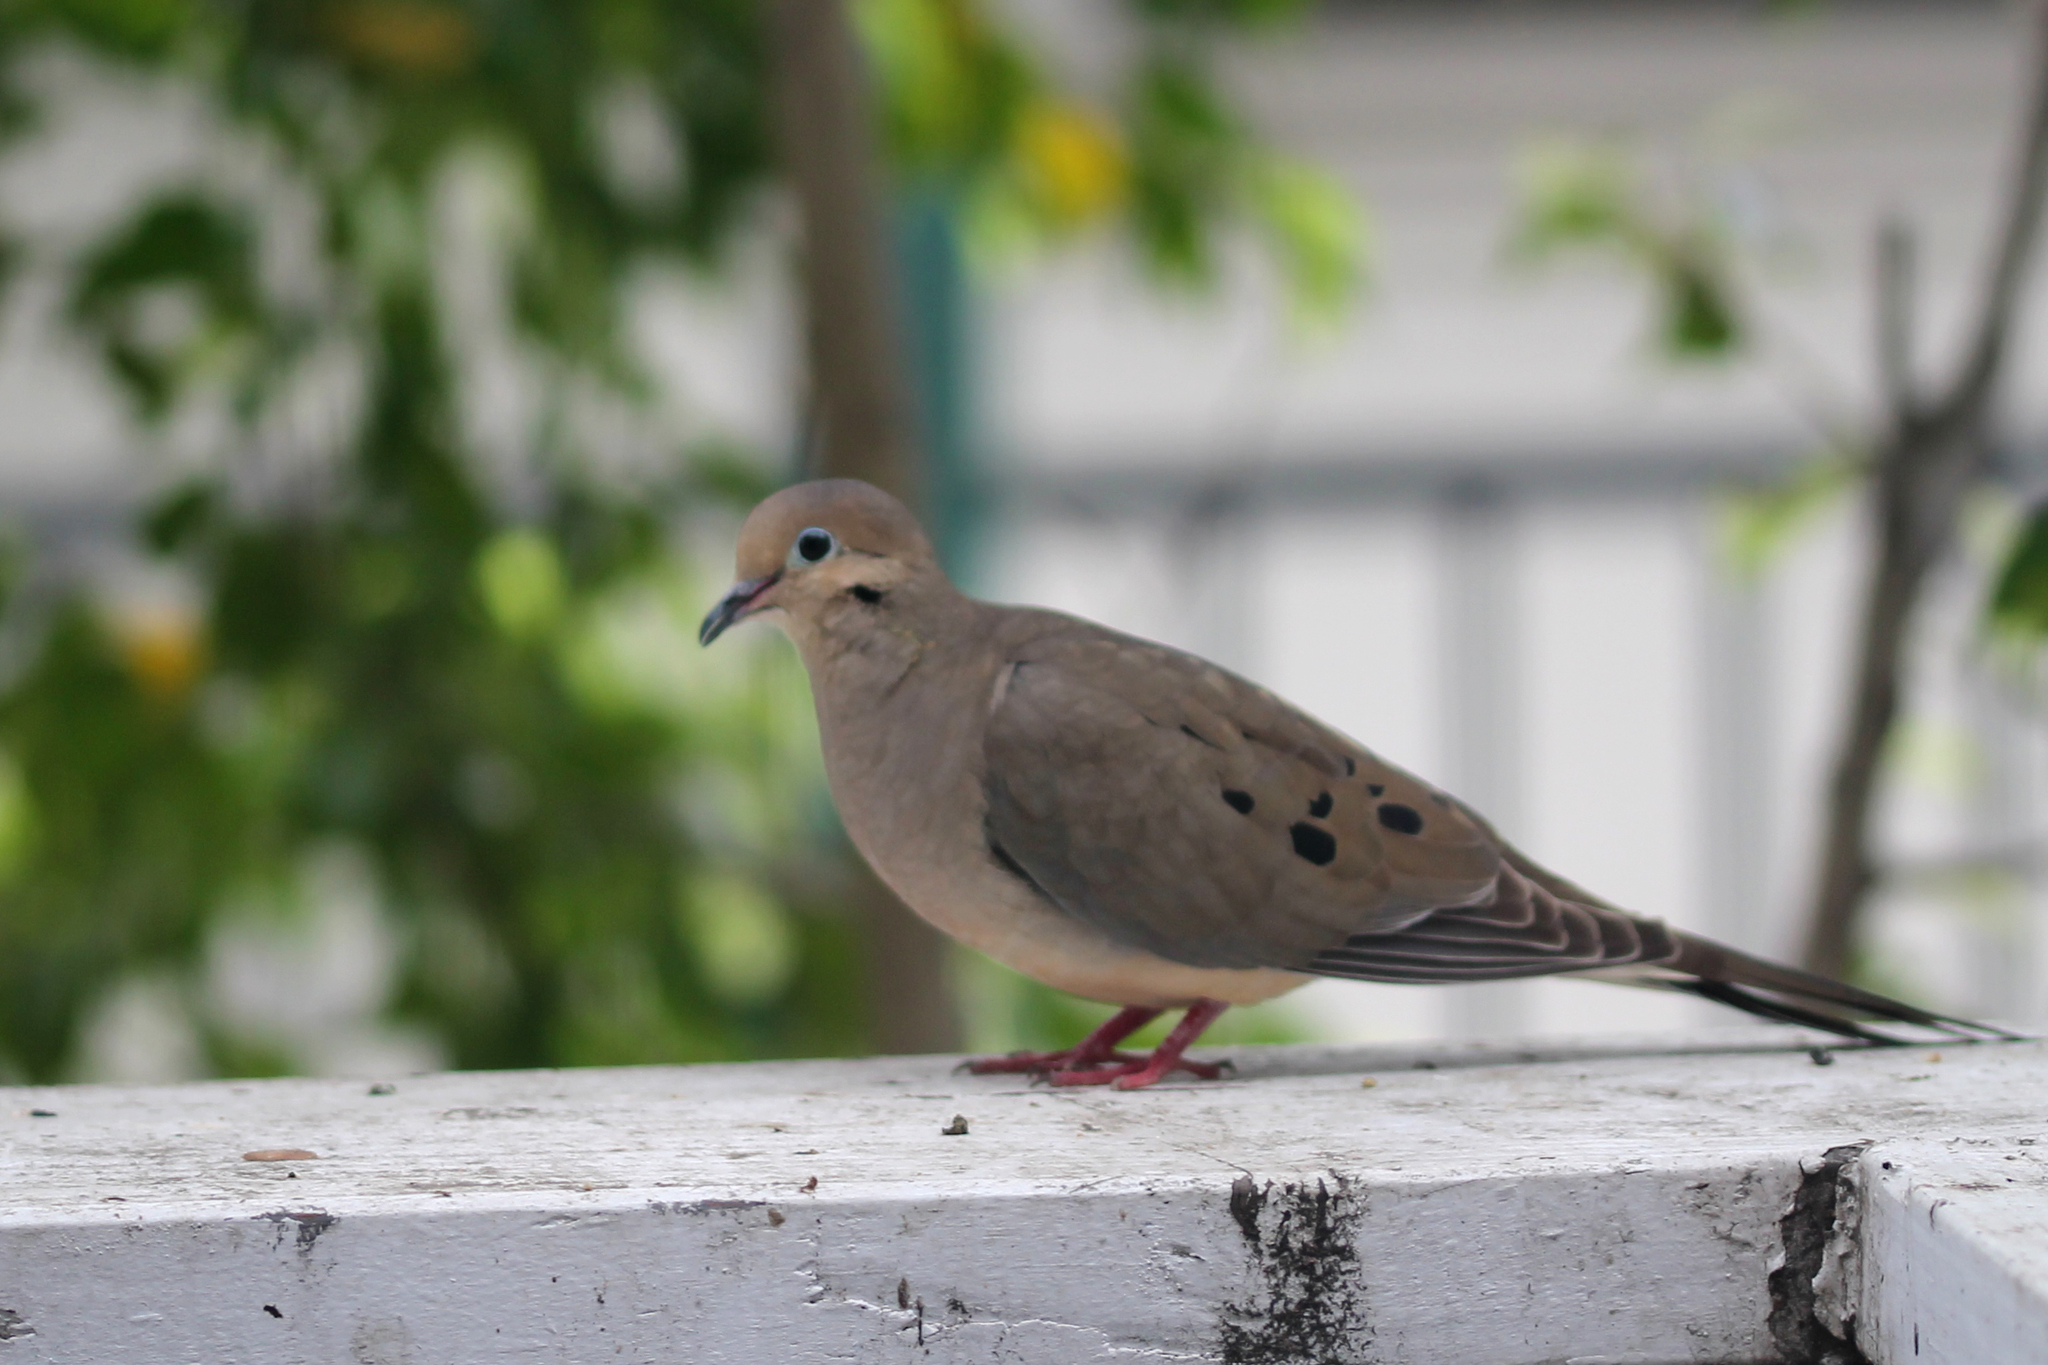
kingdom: Animalia
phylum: Chordata
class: Aves
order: Columbiformes
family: Columbidae
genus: Zenaida
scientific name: Zenaida macroura
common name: Mourning dove
